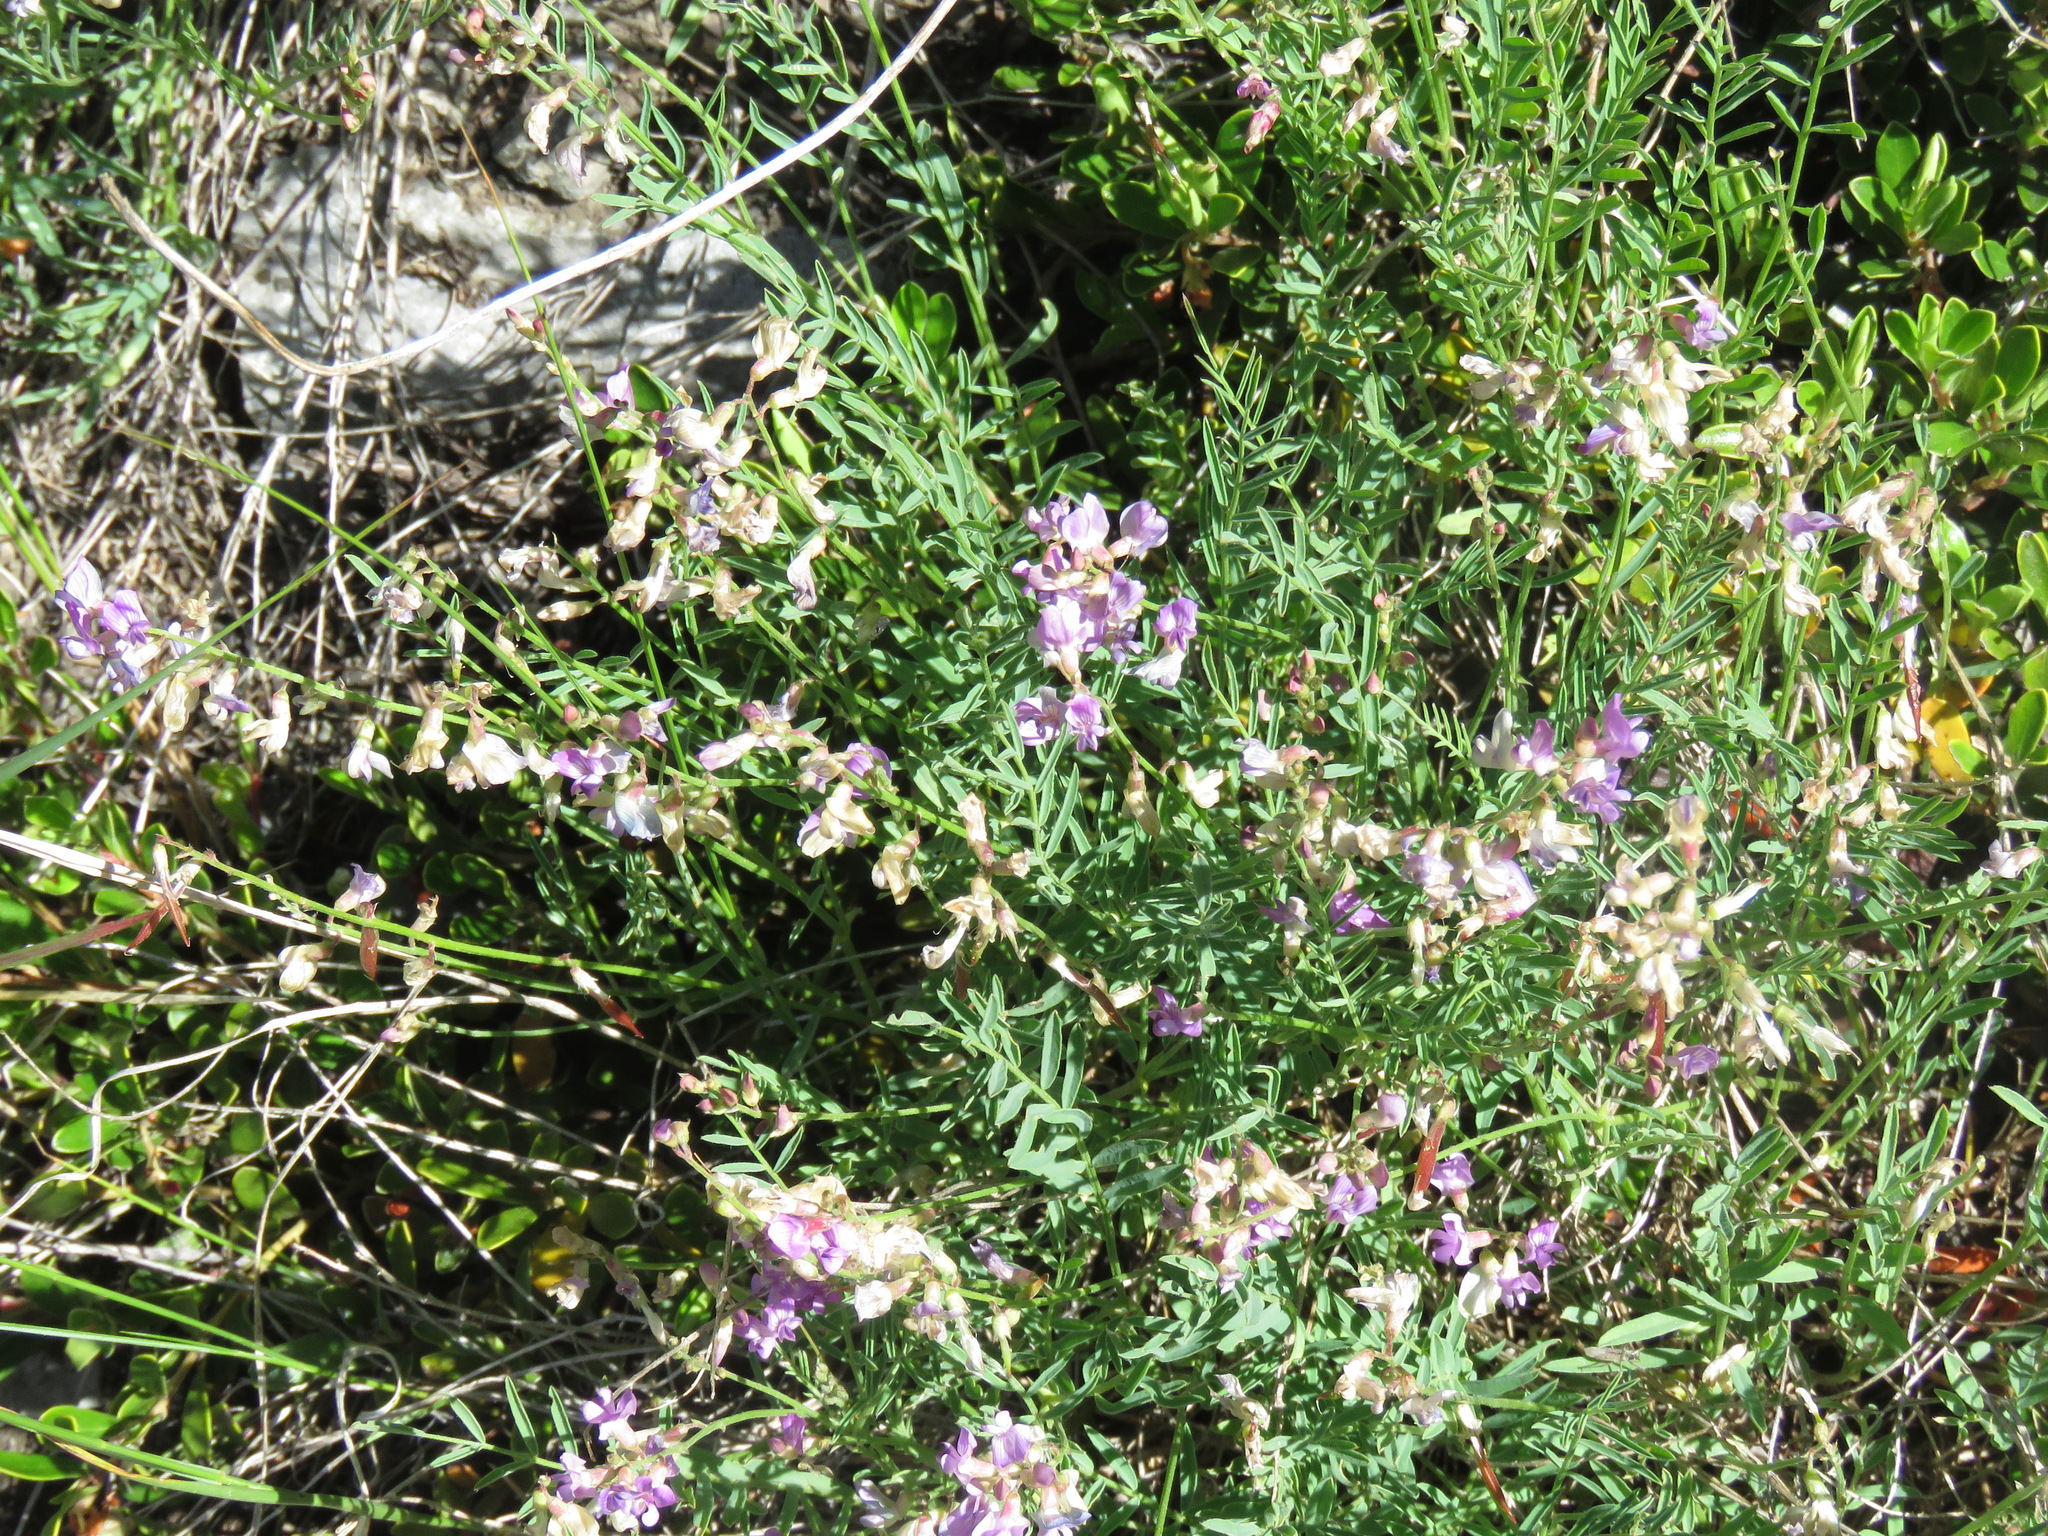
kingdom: Plantae
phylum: Tracheophyta
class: Magnoliopsida
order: Fabales
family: Fabaceae
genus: Astragalus
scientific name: Astragalus miser
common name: Timber milkvetch
